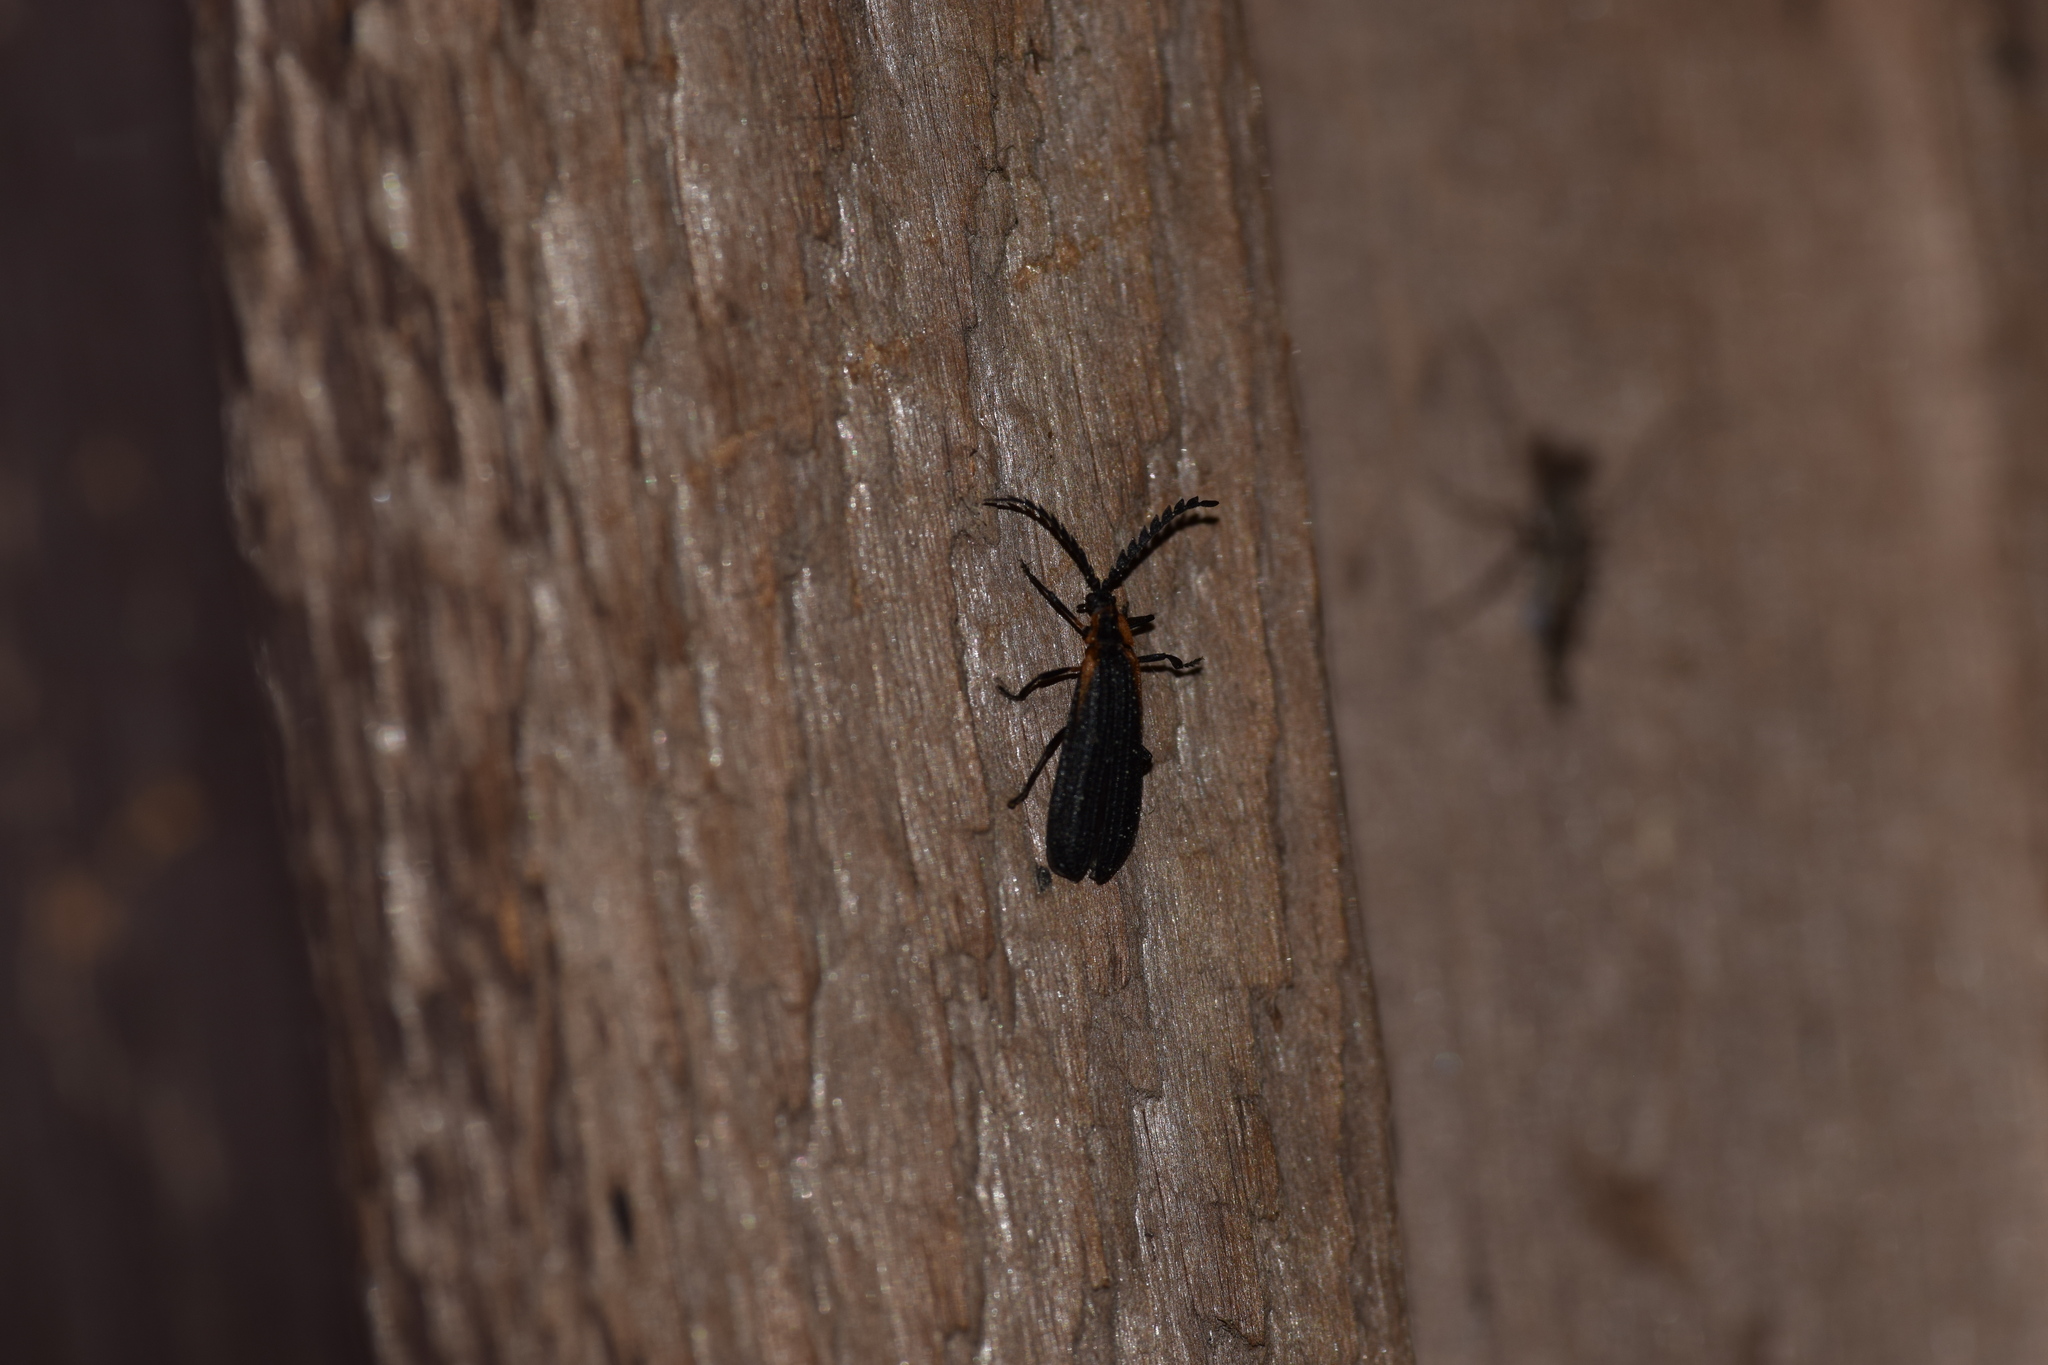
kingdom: Animalia
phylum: Arthropoda
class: Insecta
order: Coleoptera
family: Lycidae
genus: Leptoceletes
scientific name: Leptoceletes basalis
